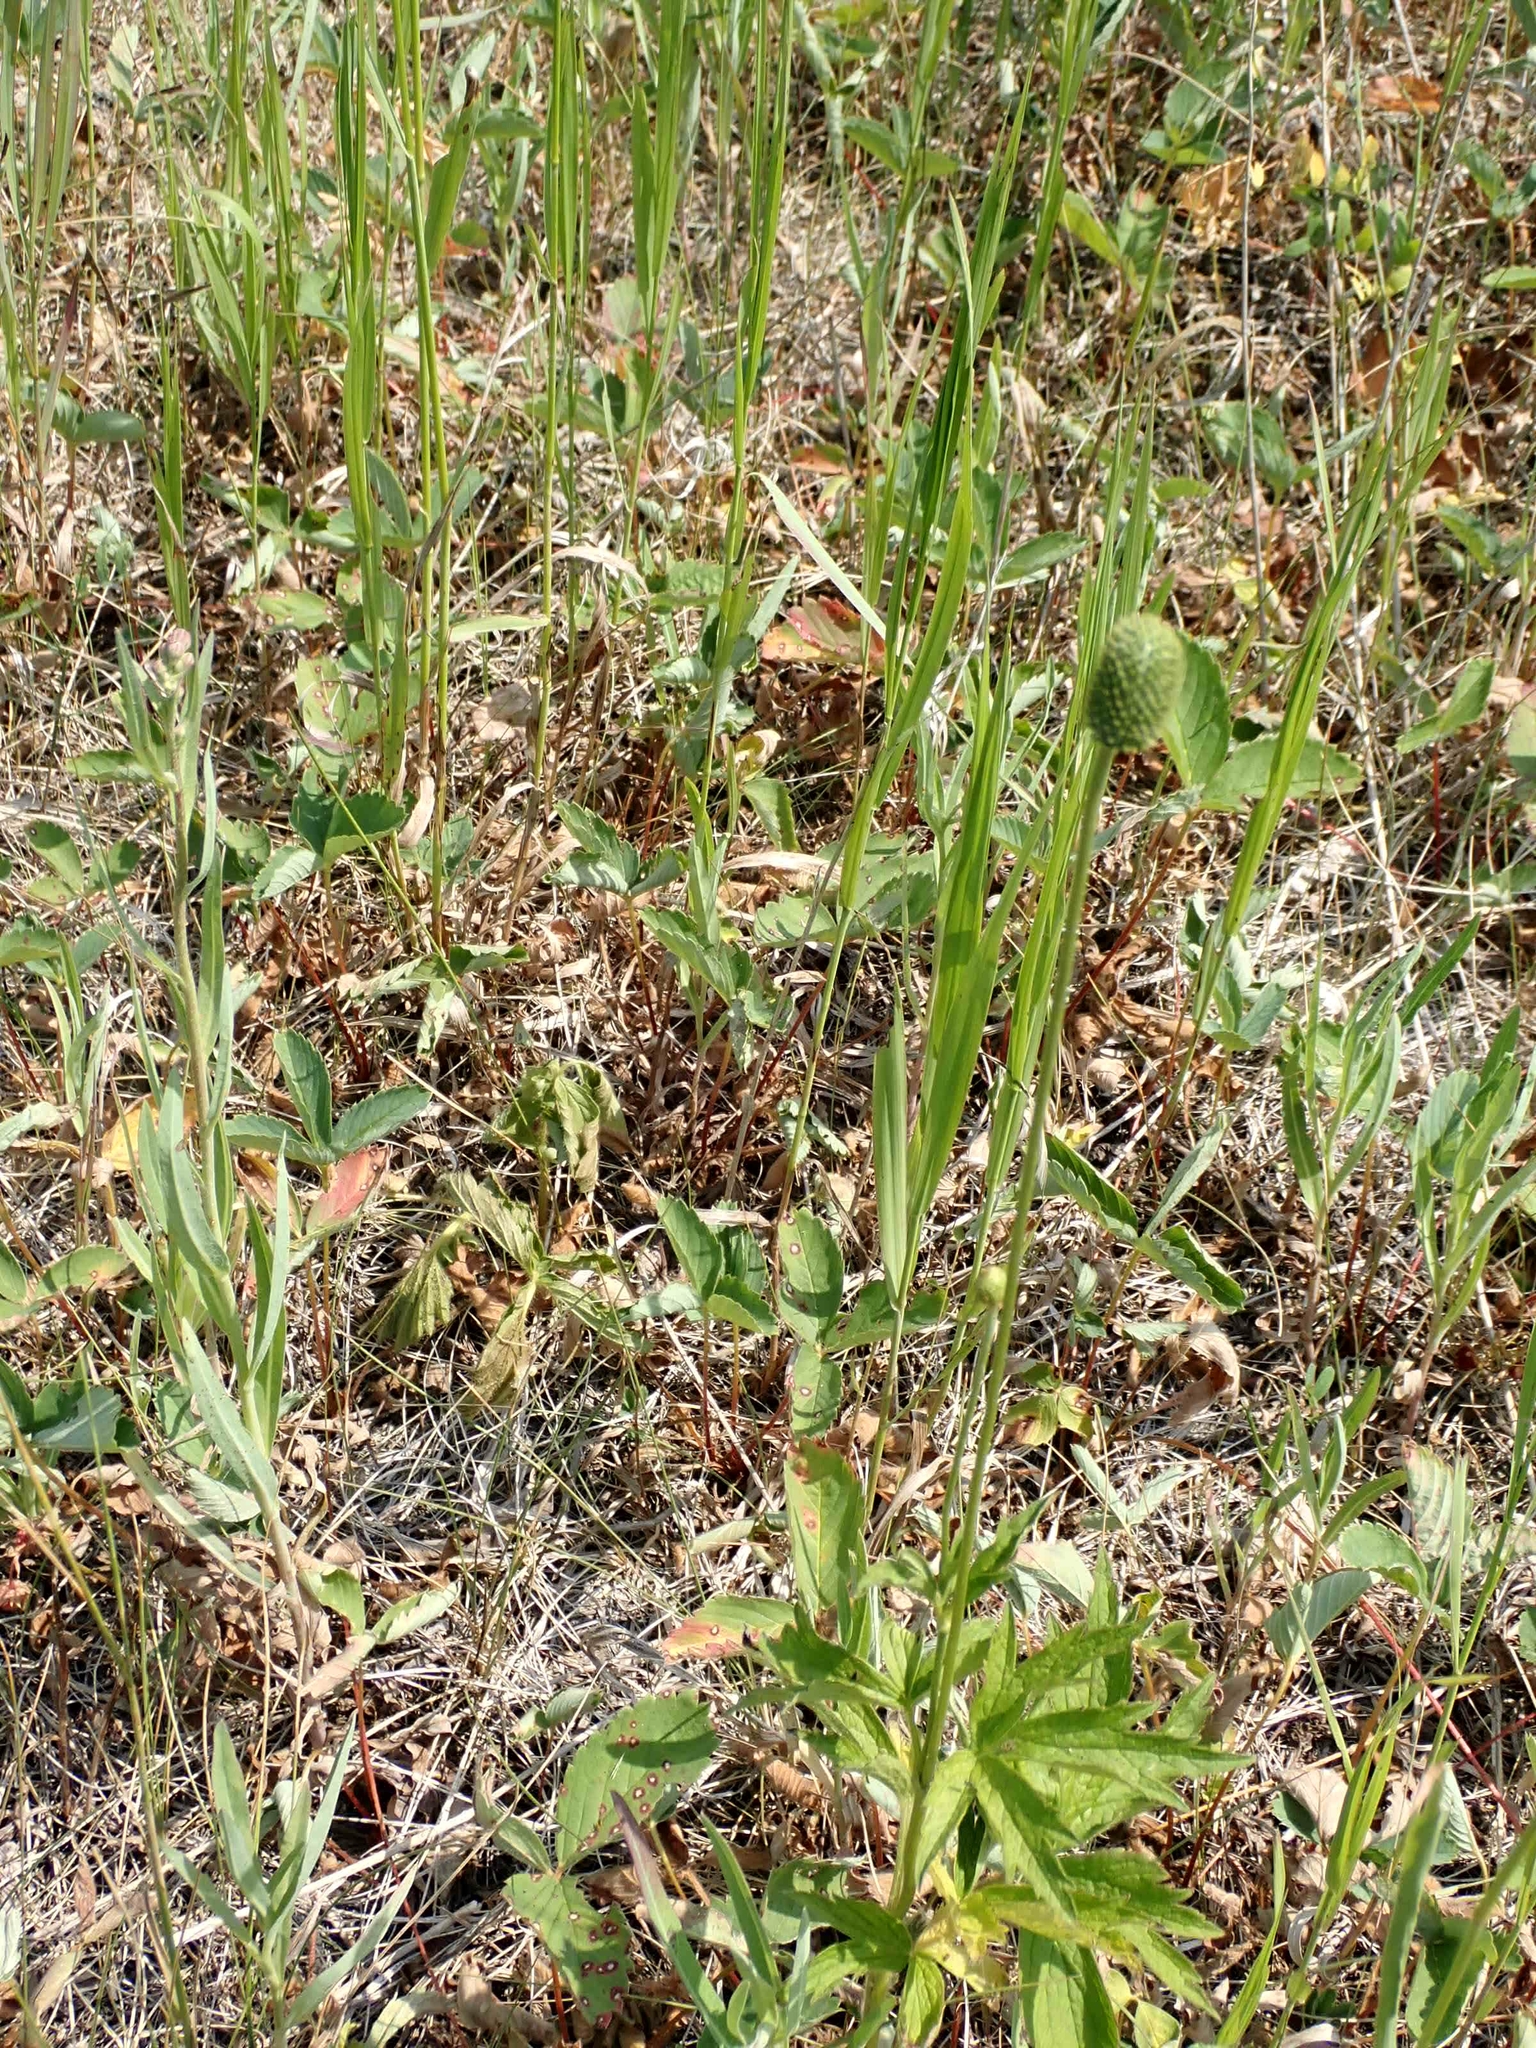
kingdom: Plantae
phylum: Tracheophyta
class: Magnoliopsida
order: Ranunculales
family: Ranunculaceae
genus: Anemone
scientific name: Anemone cylindrica
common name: Candle anemone
